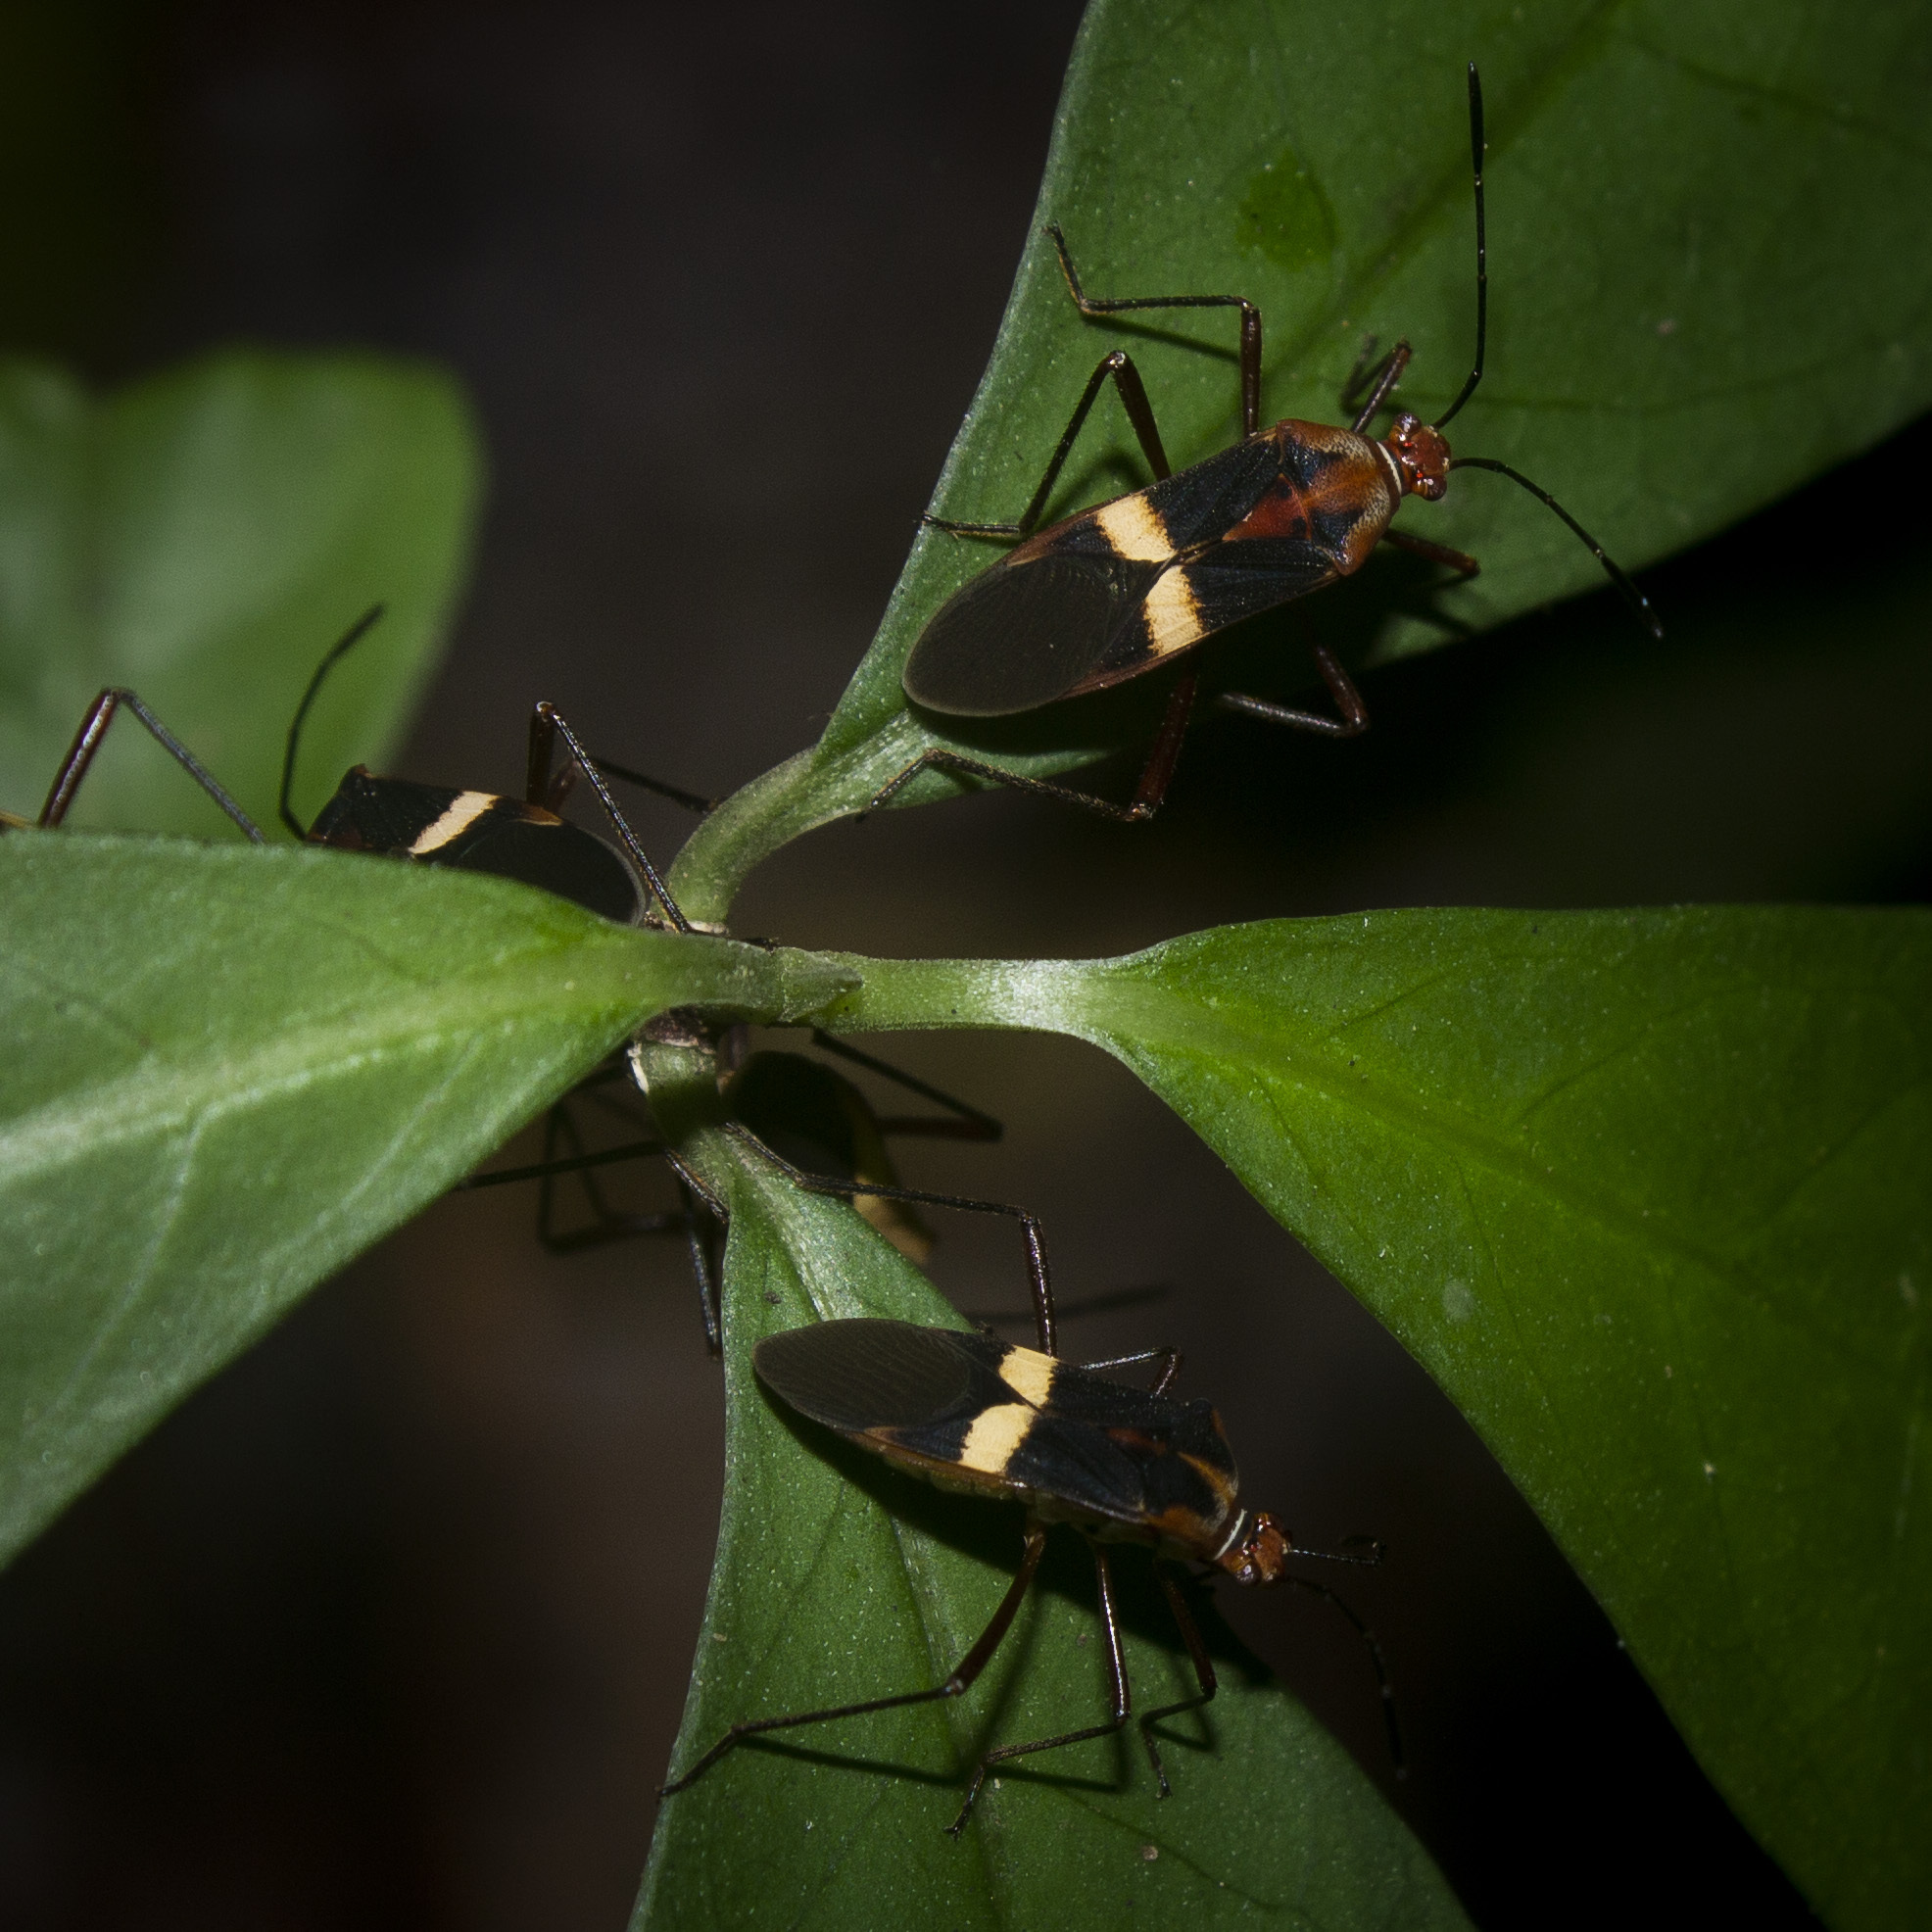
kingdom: Animalia
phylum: Arthropoda
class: Insecta
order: Hemiptera
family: Coreidae
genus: Hypselonotus
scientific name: Hypselonotus interruptus
